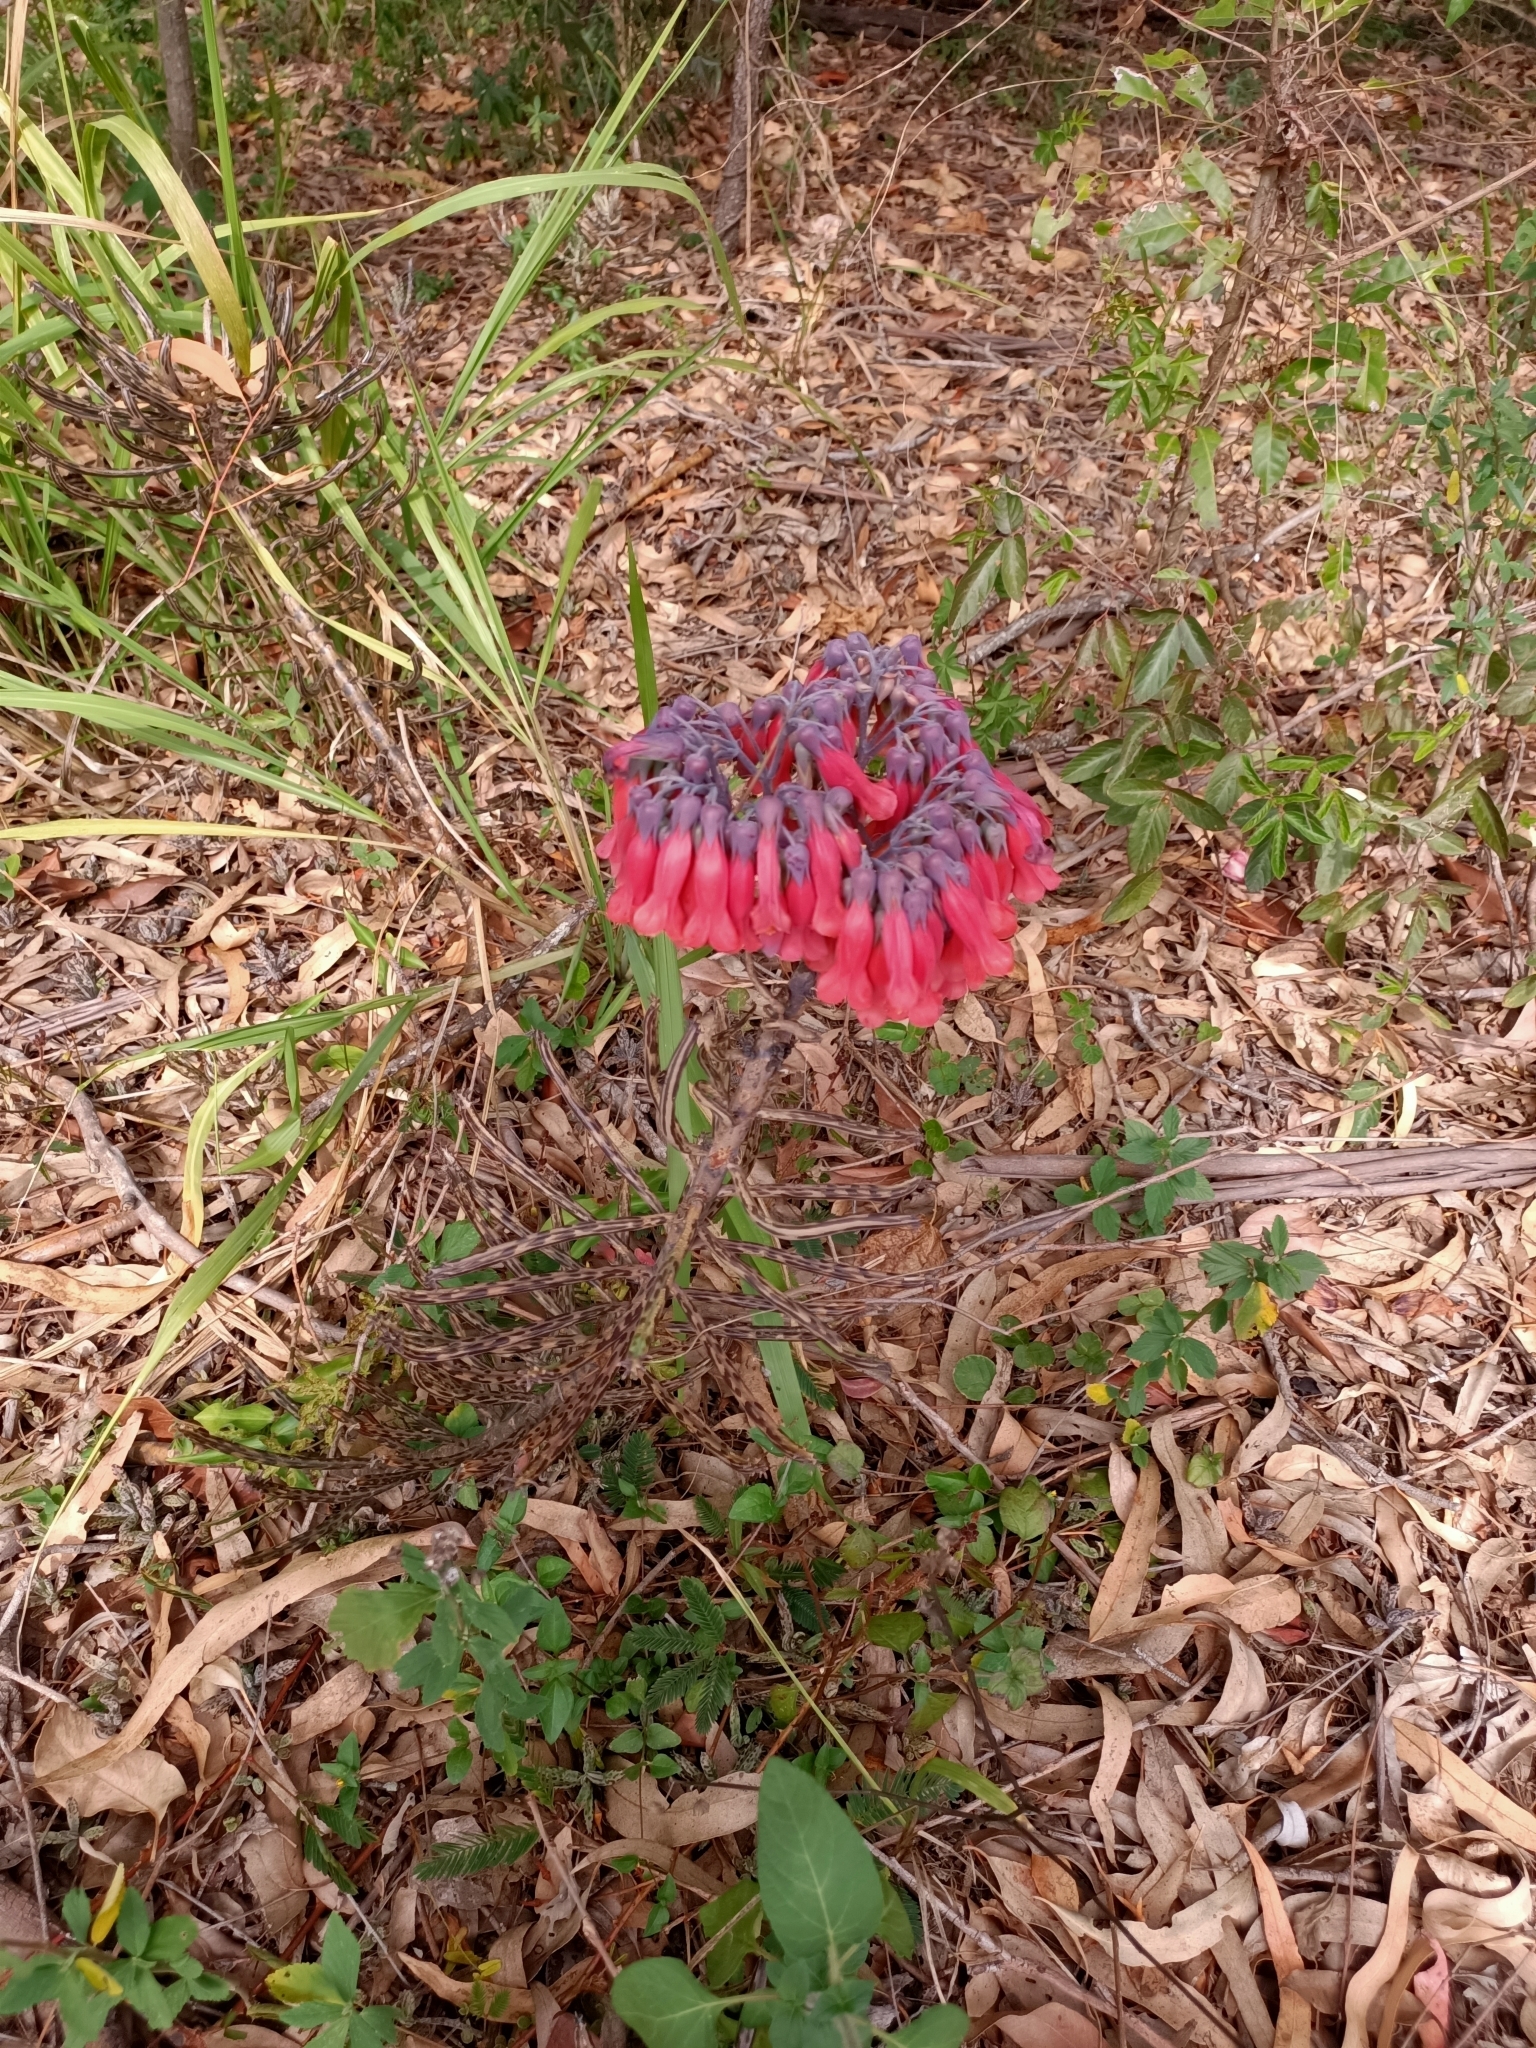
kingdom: Plantae
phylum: Tracheophyta
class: Magnoliopsida
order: Saxifragales
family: Crassulaceae
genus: Kalanchoe
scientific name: Kalanchoe delagoensis
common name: Chandelier plant
